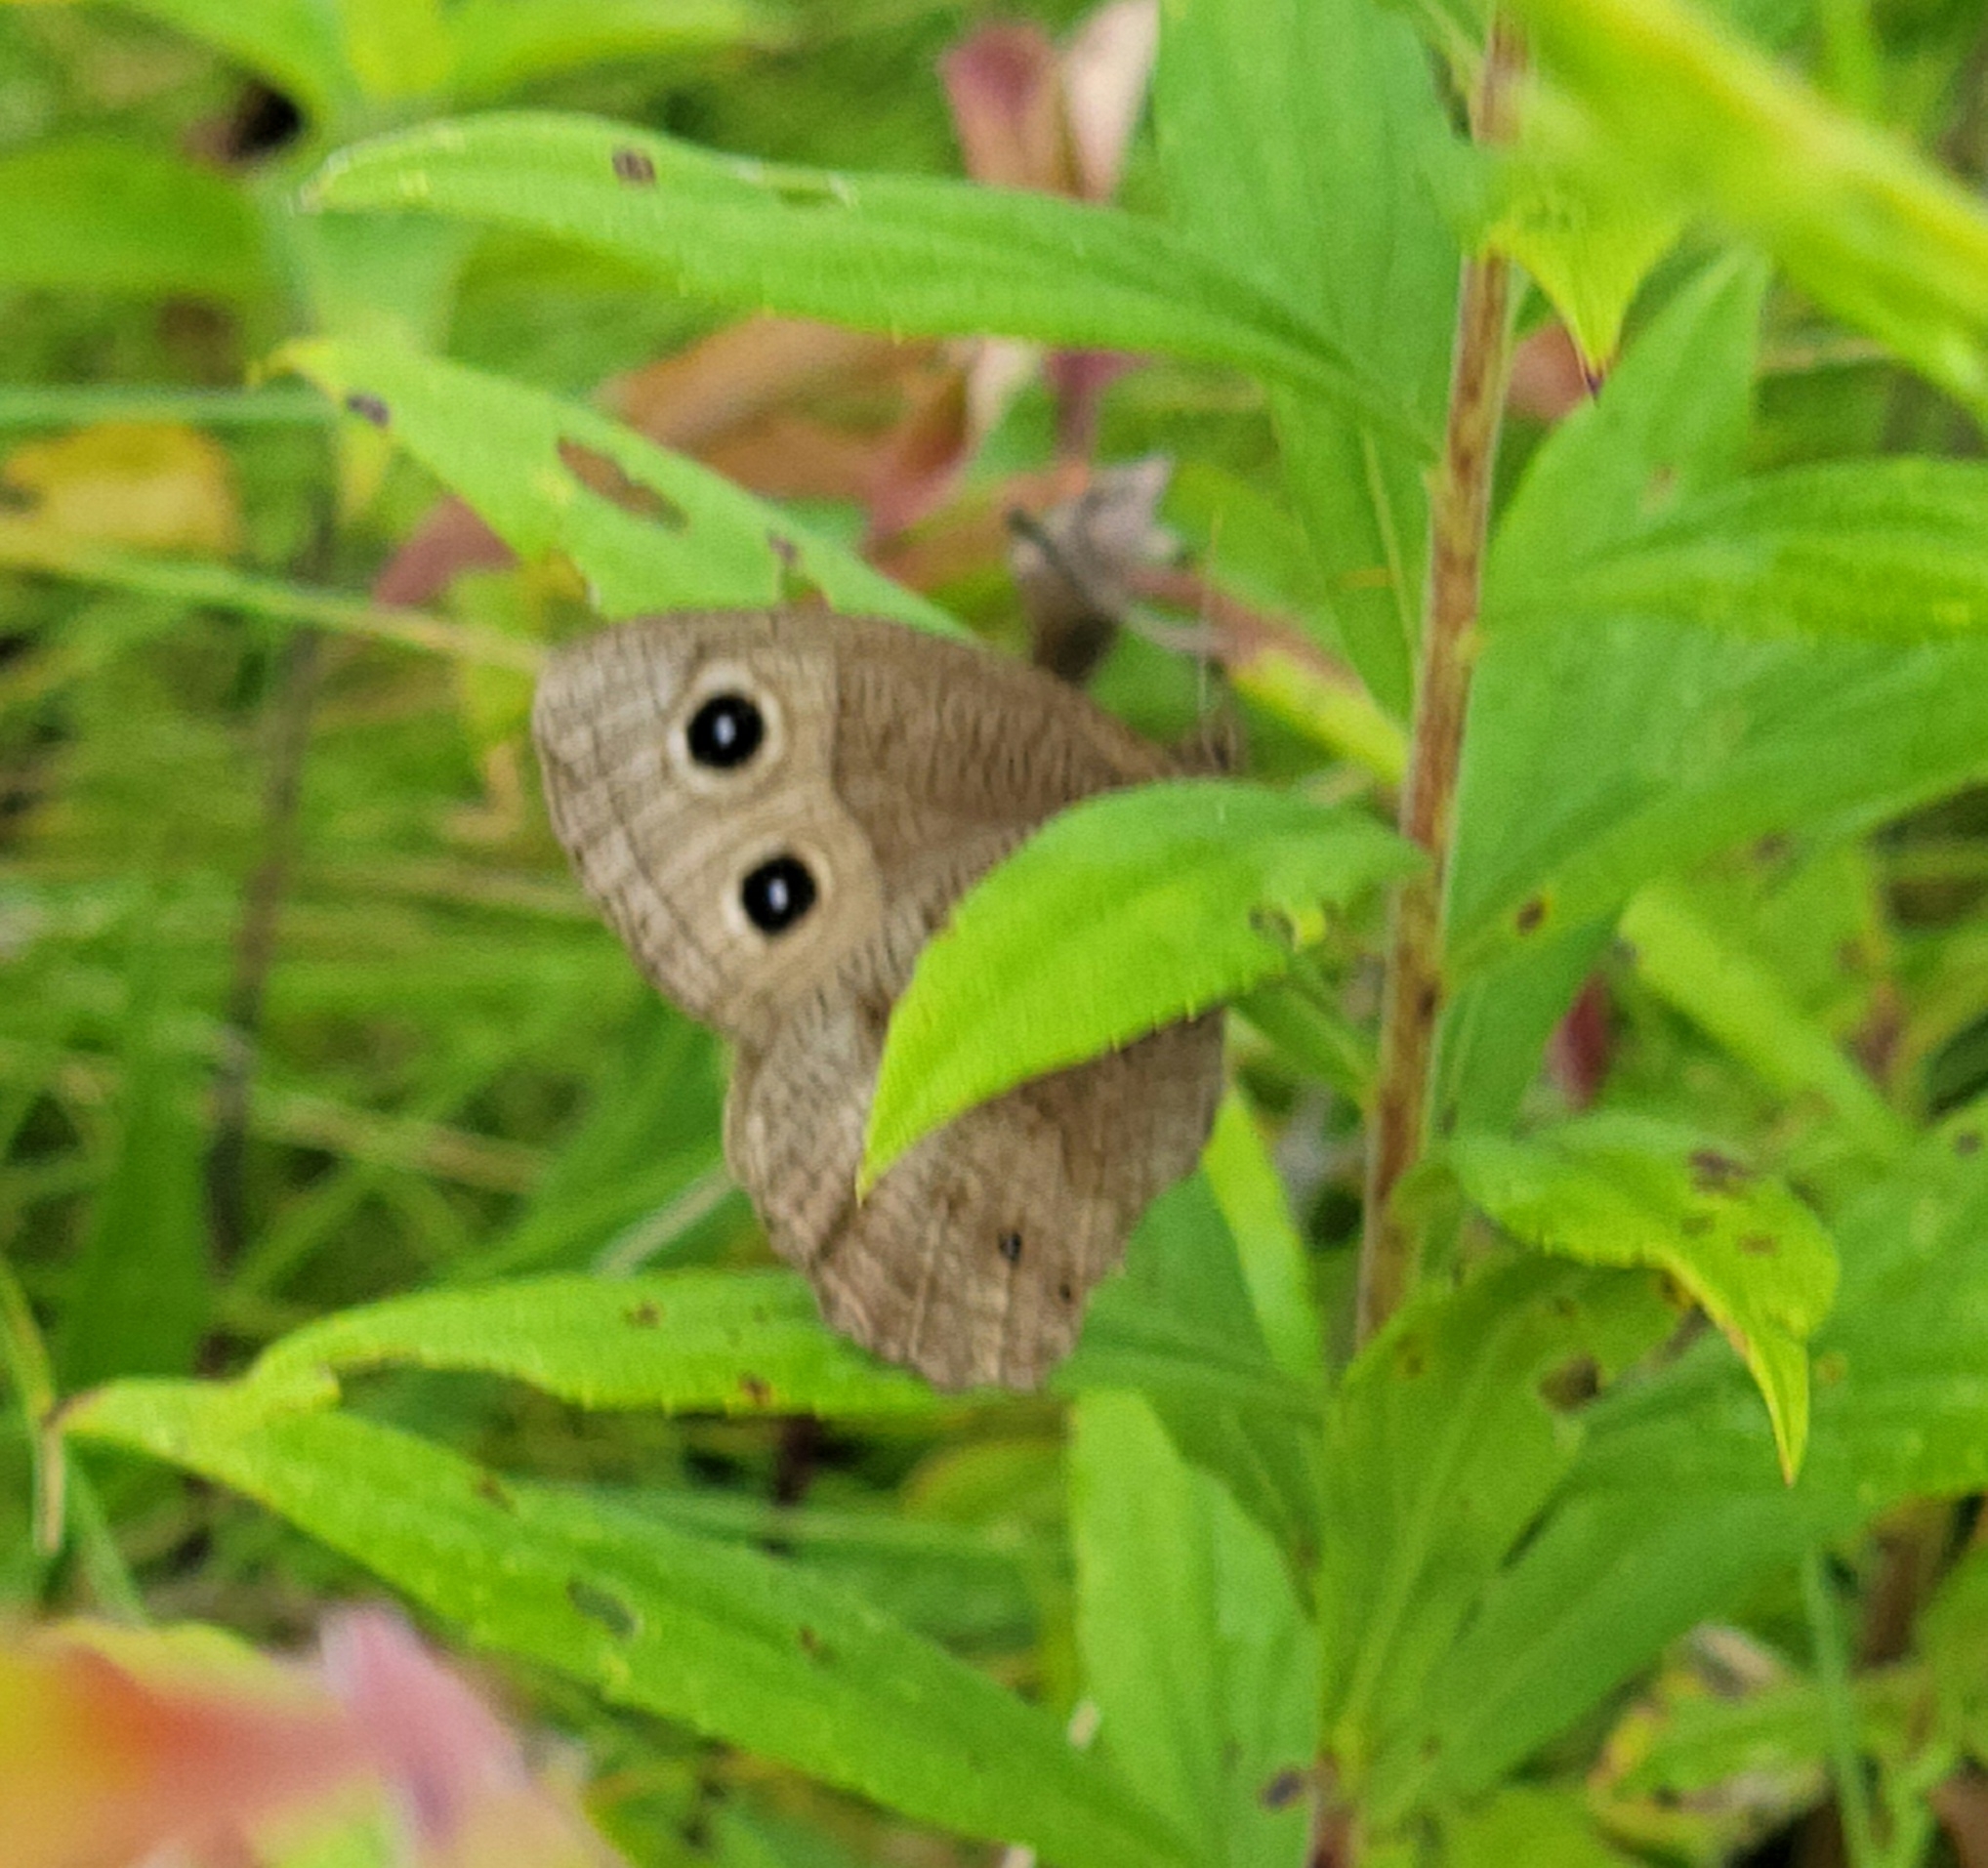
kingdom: Animalia
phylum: Arthropoda
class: Insecta
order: Lepidoptera
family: Nymphalidae
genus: Cercyonis
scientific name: Cercyonis pegala
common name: Common wood-nymph
